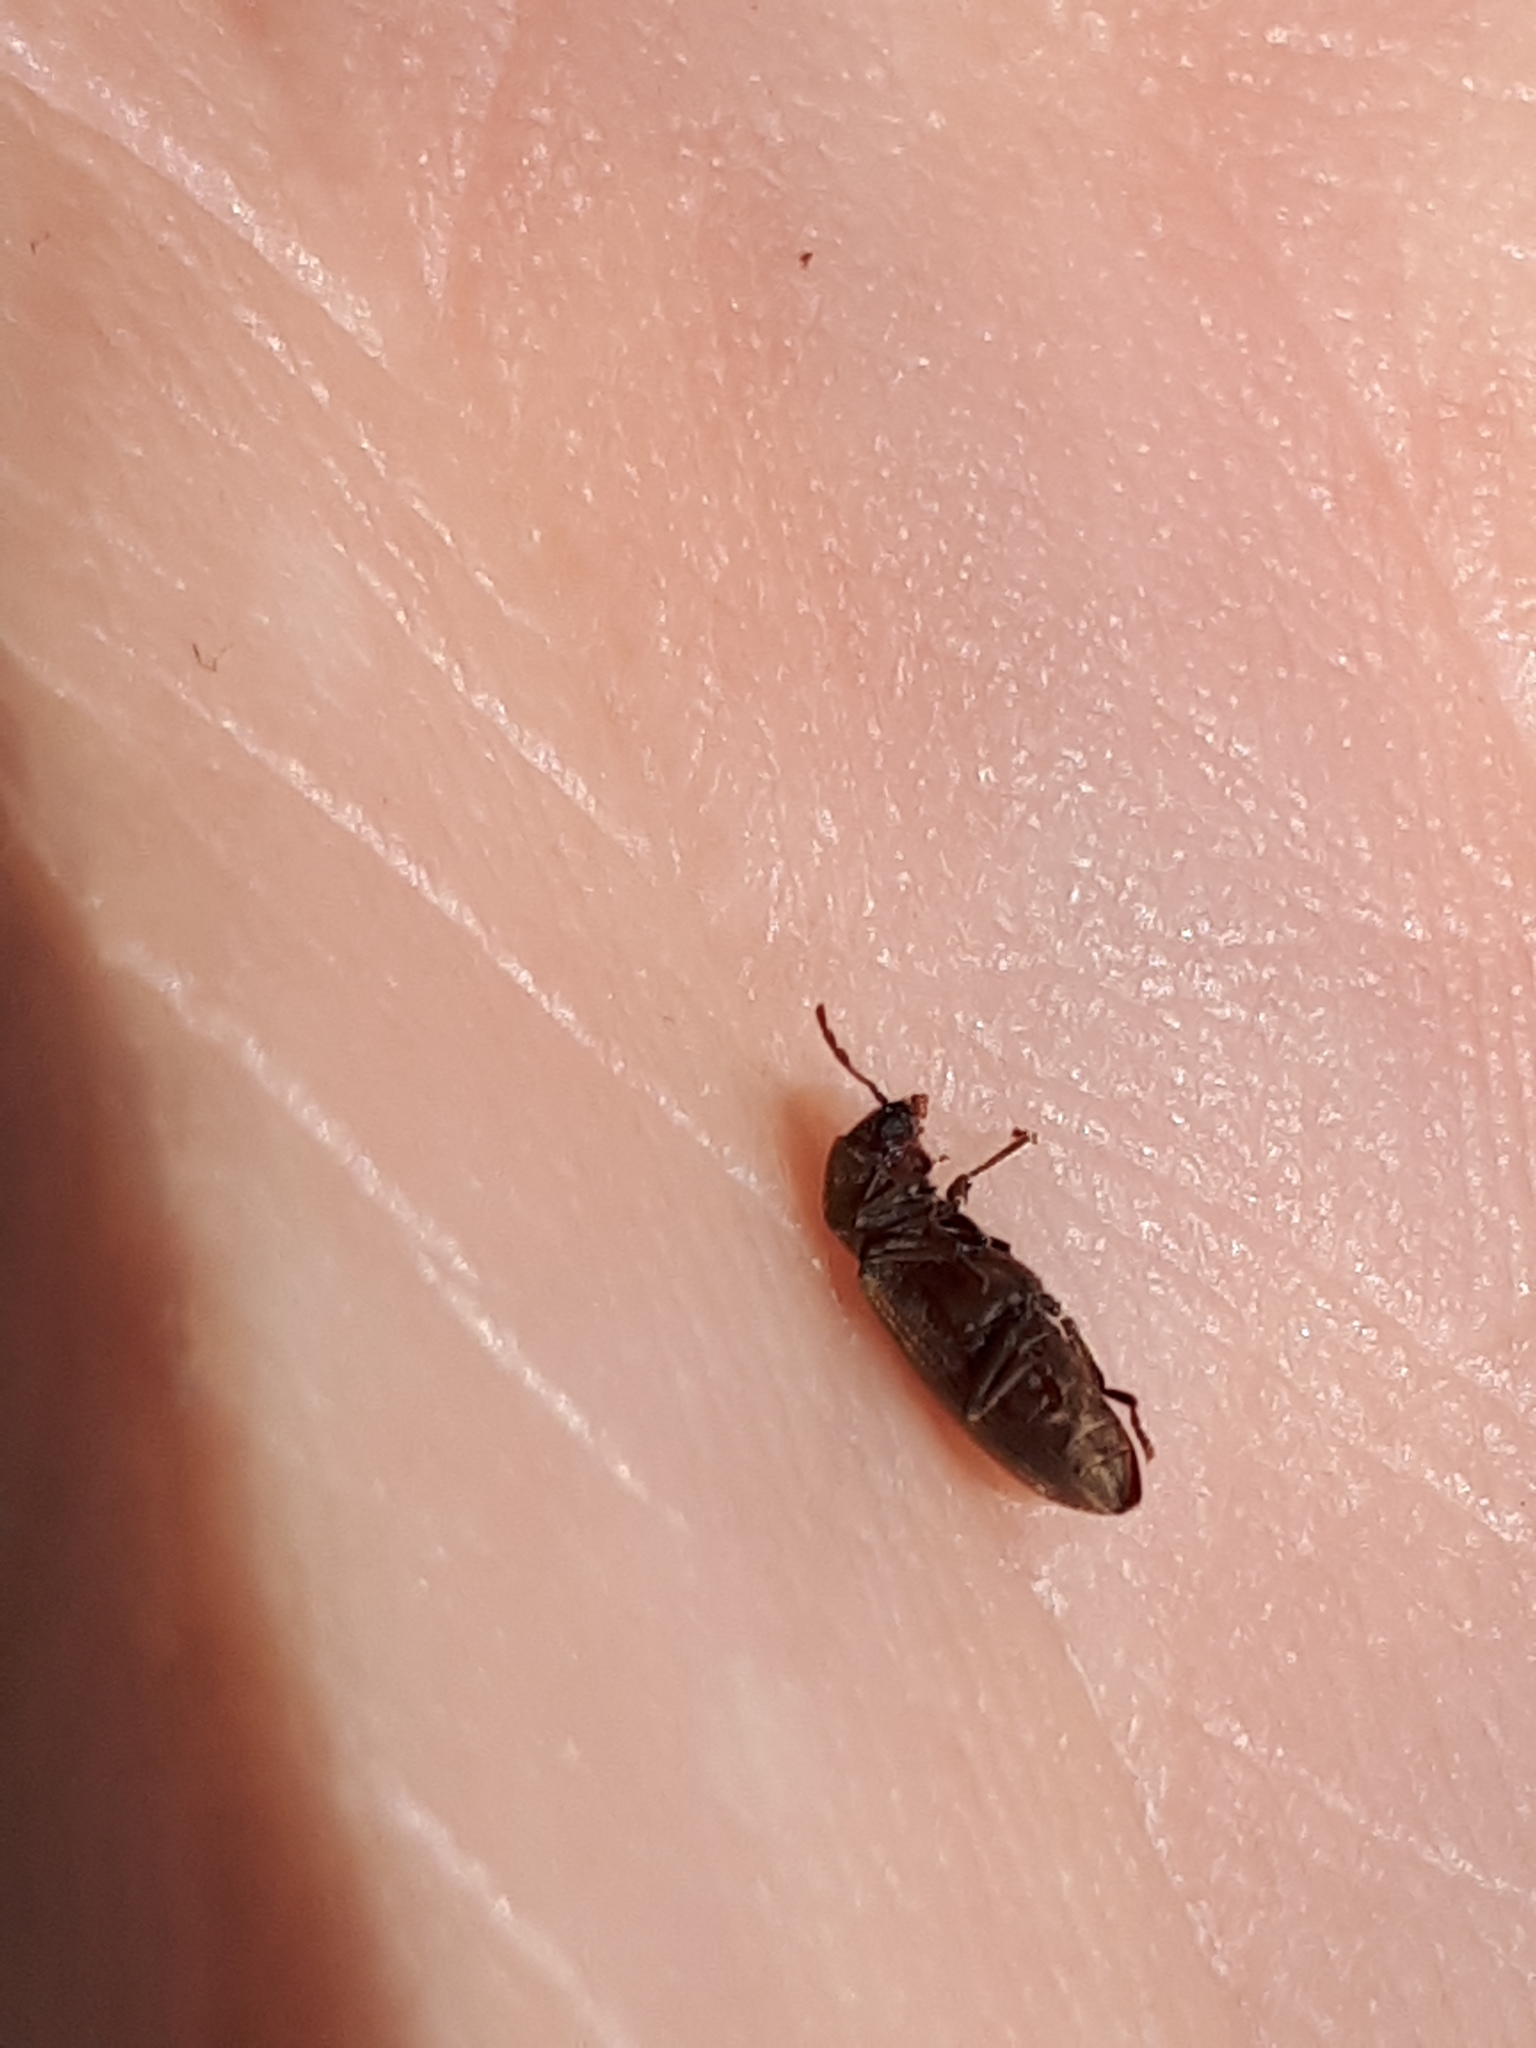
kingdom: Animalia
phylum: Arthropoda
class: Insecta
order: Coleoptera
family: Anobiidae
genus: Microbregma
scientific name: Microbregma emarginatum
